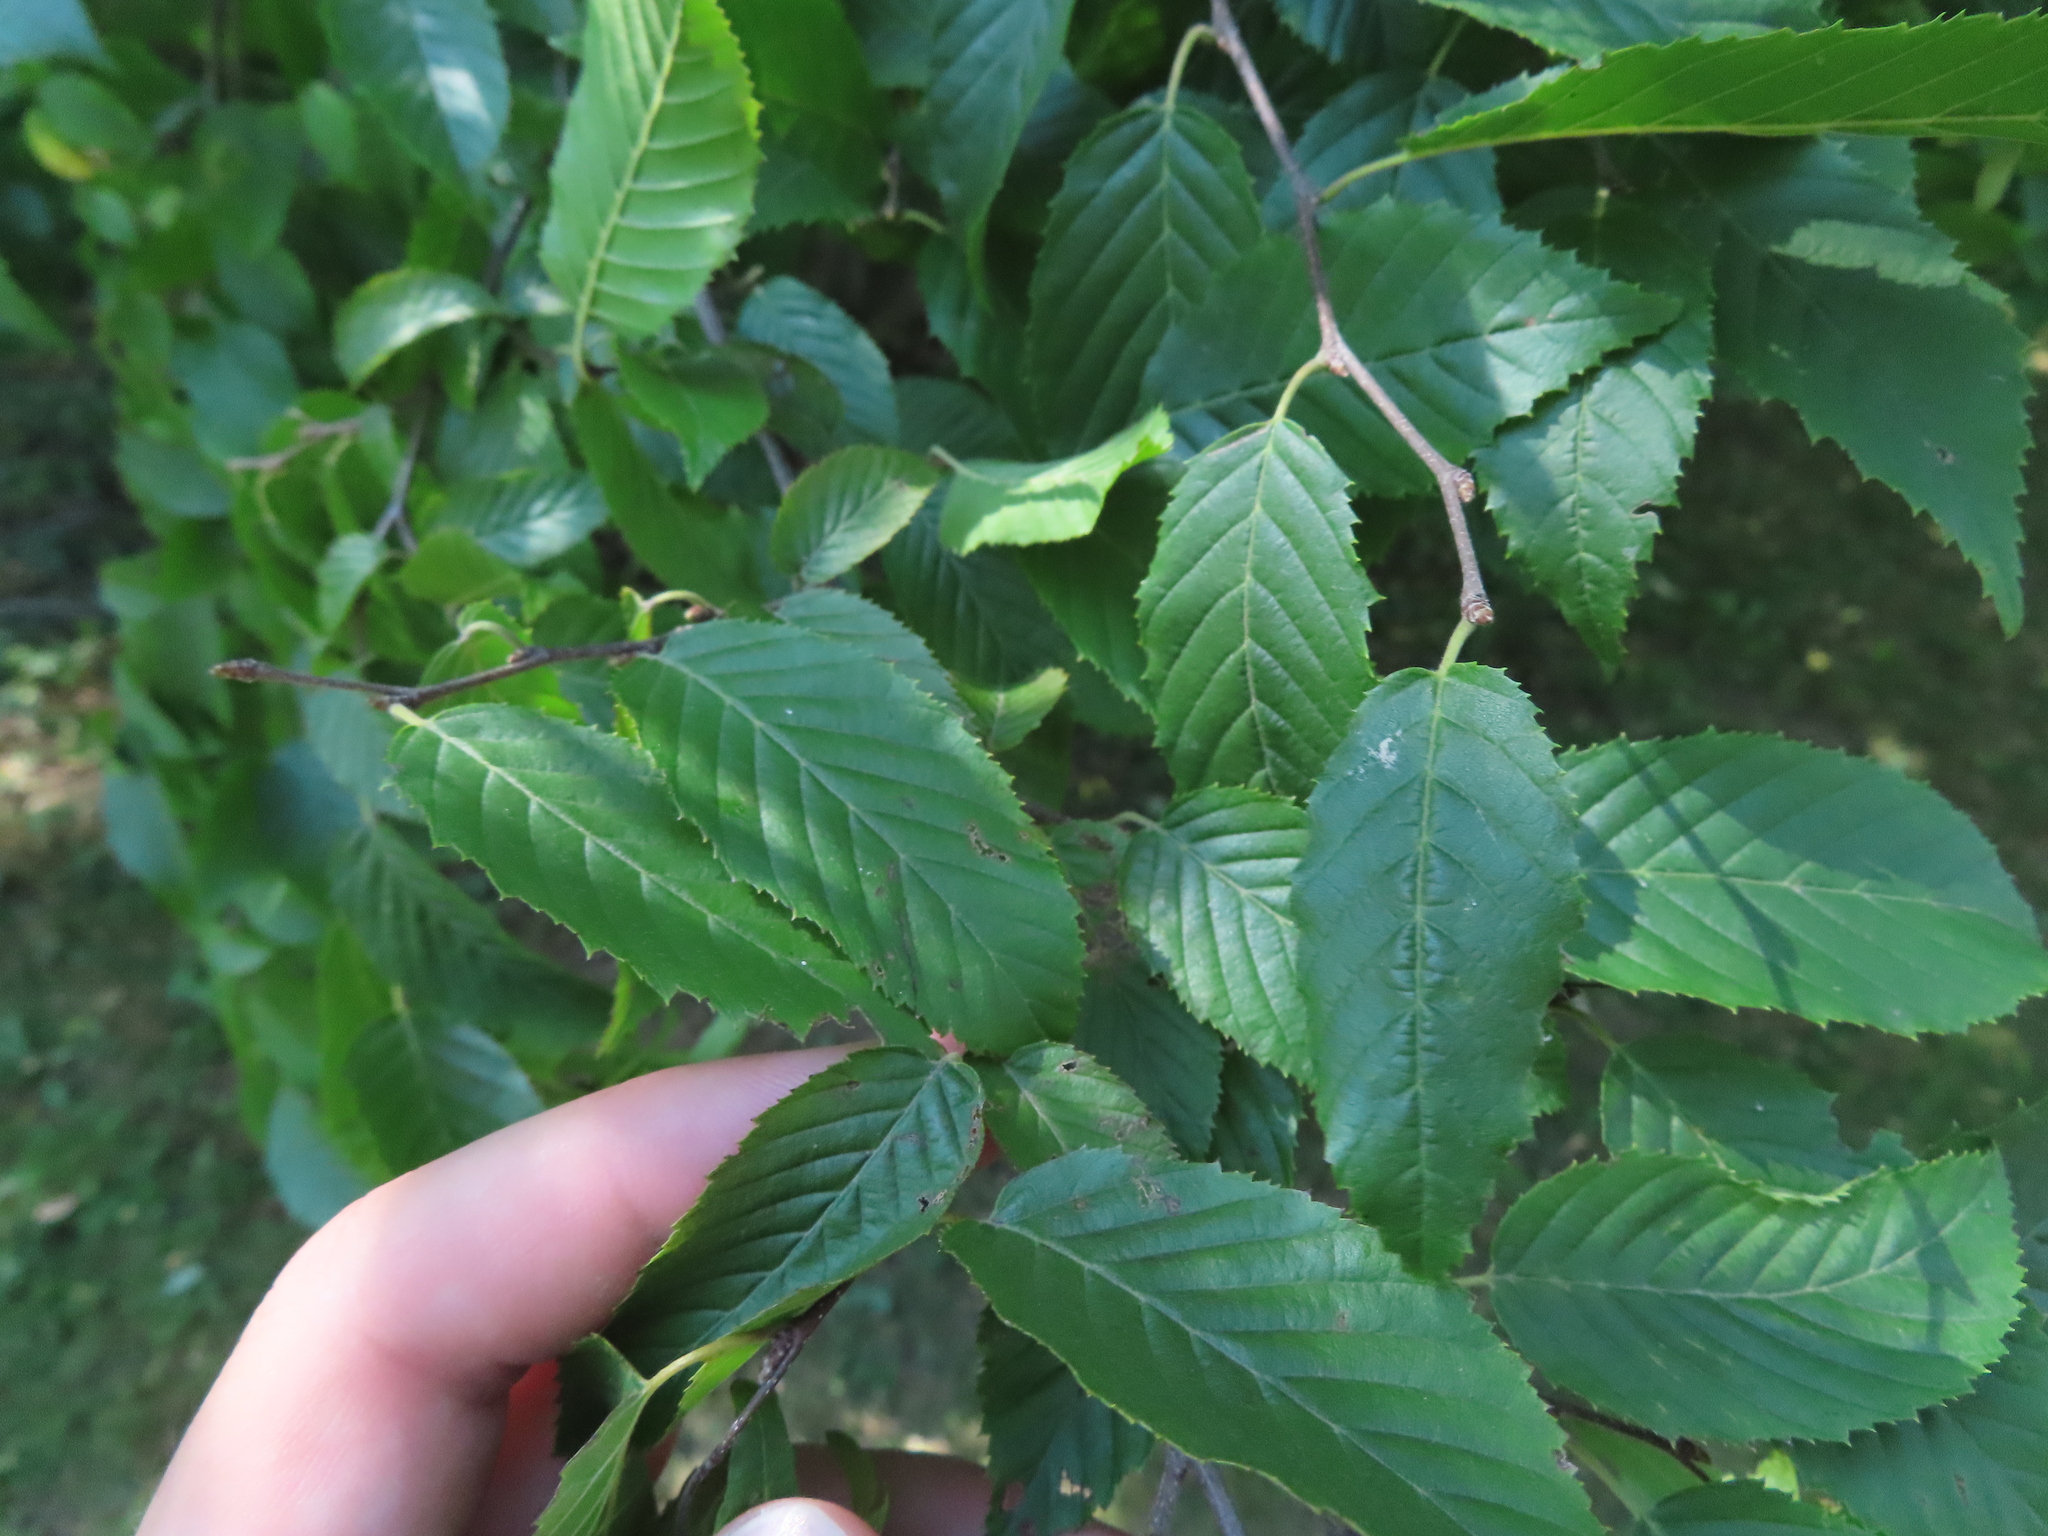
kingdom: Plantae
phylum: Tracheophyta
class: Magnoliopsida
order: Fagales
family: Betulaceae
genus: Carpinus
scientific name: Carpinus caroliniana
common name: American hornbeam
